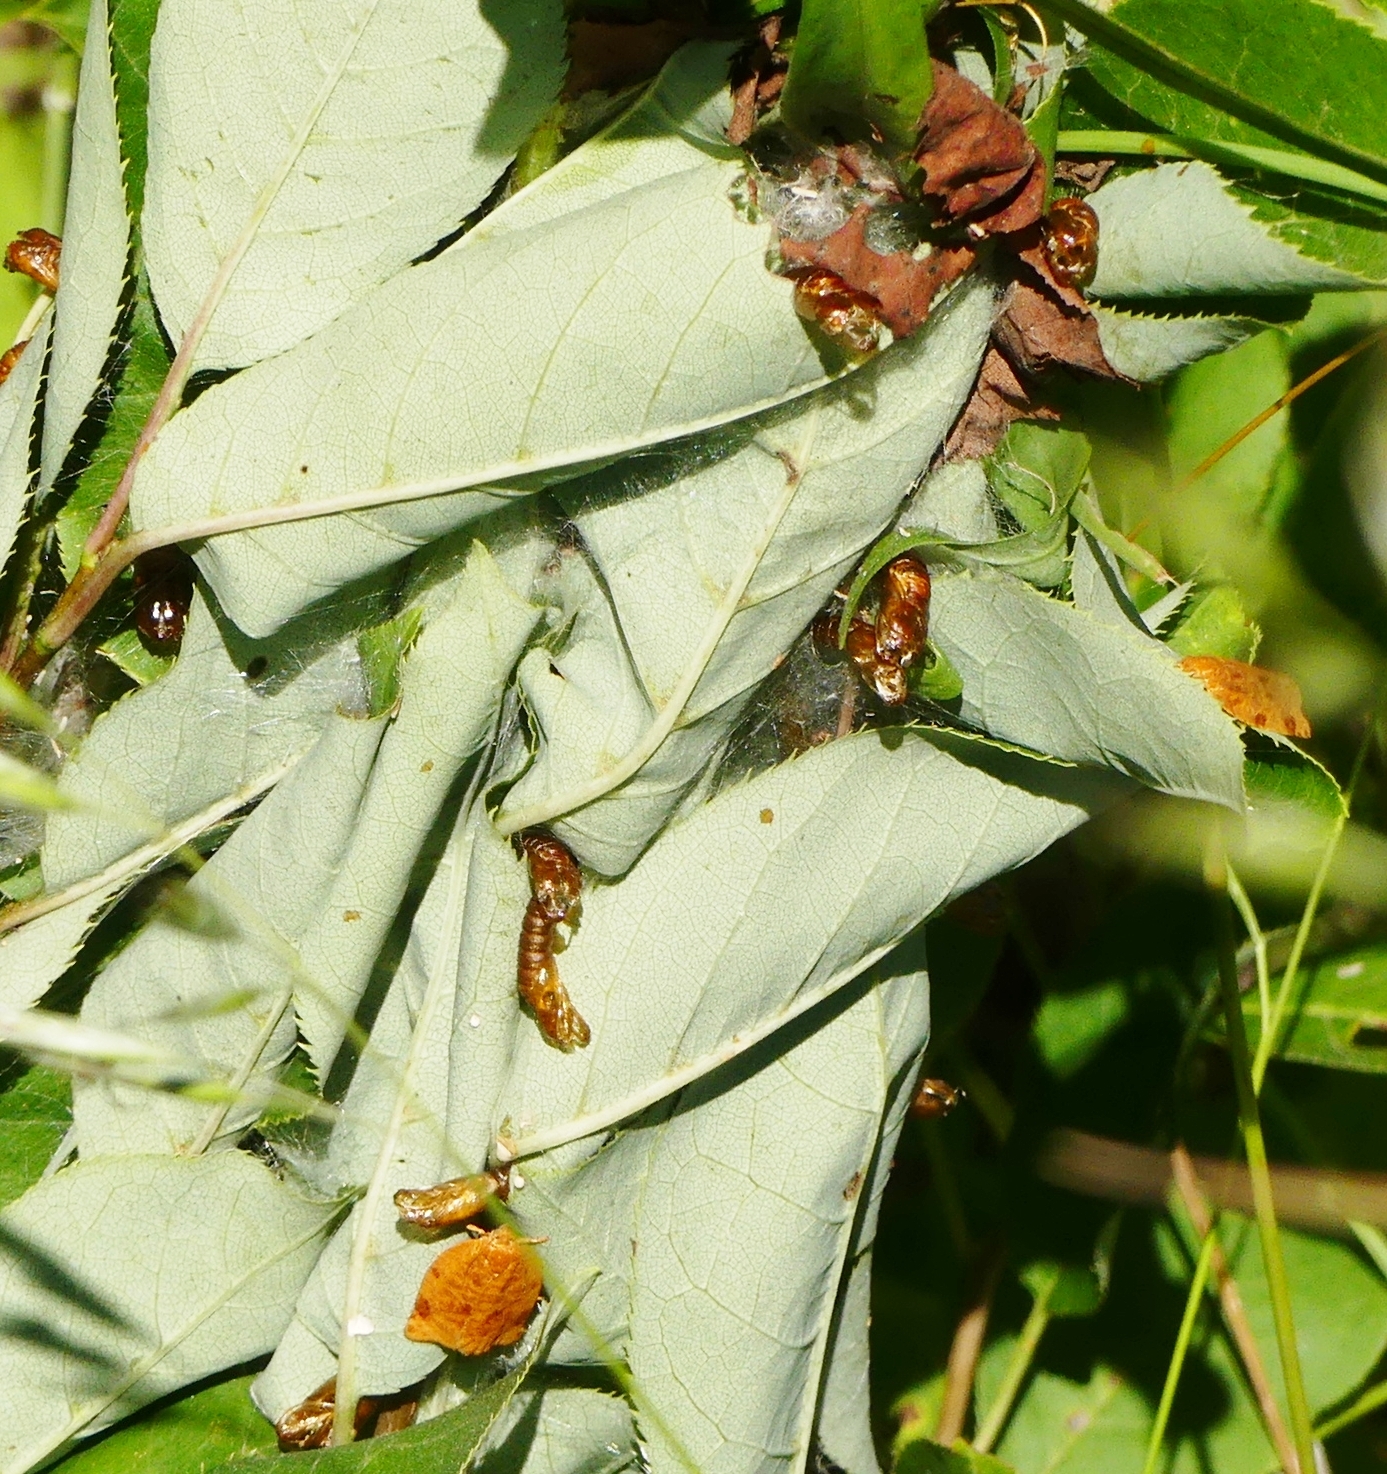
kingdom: Animalia
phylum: Arthropoda
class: Insecta
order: Lepidoptera
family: Tortricidae
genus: Archips
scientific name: Archips cerasivorana
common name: Uglynest caterpillar
